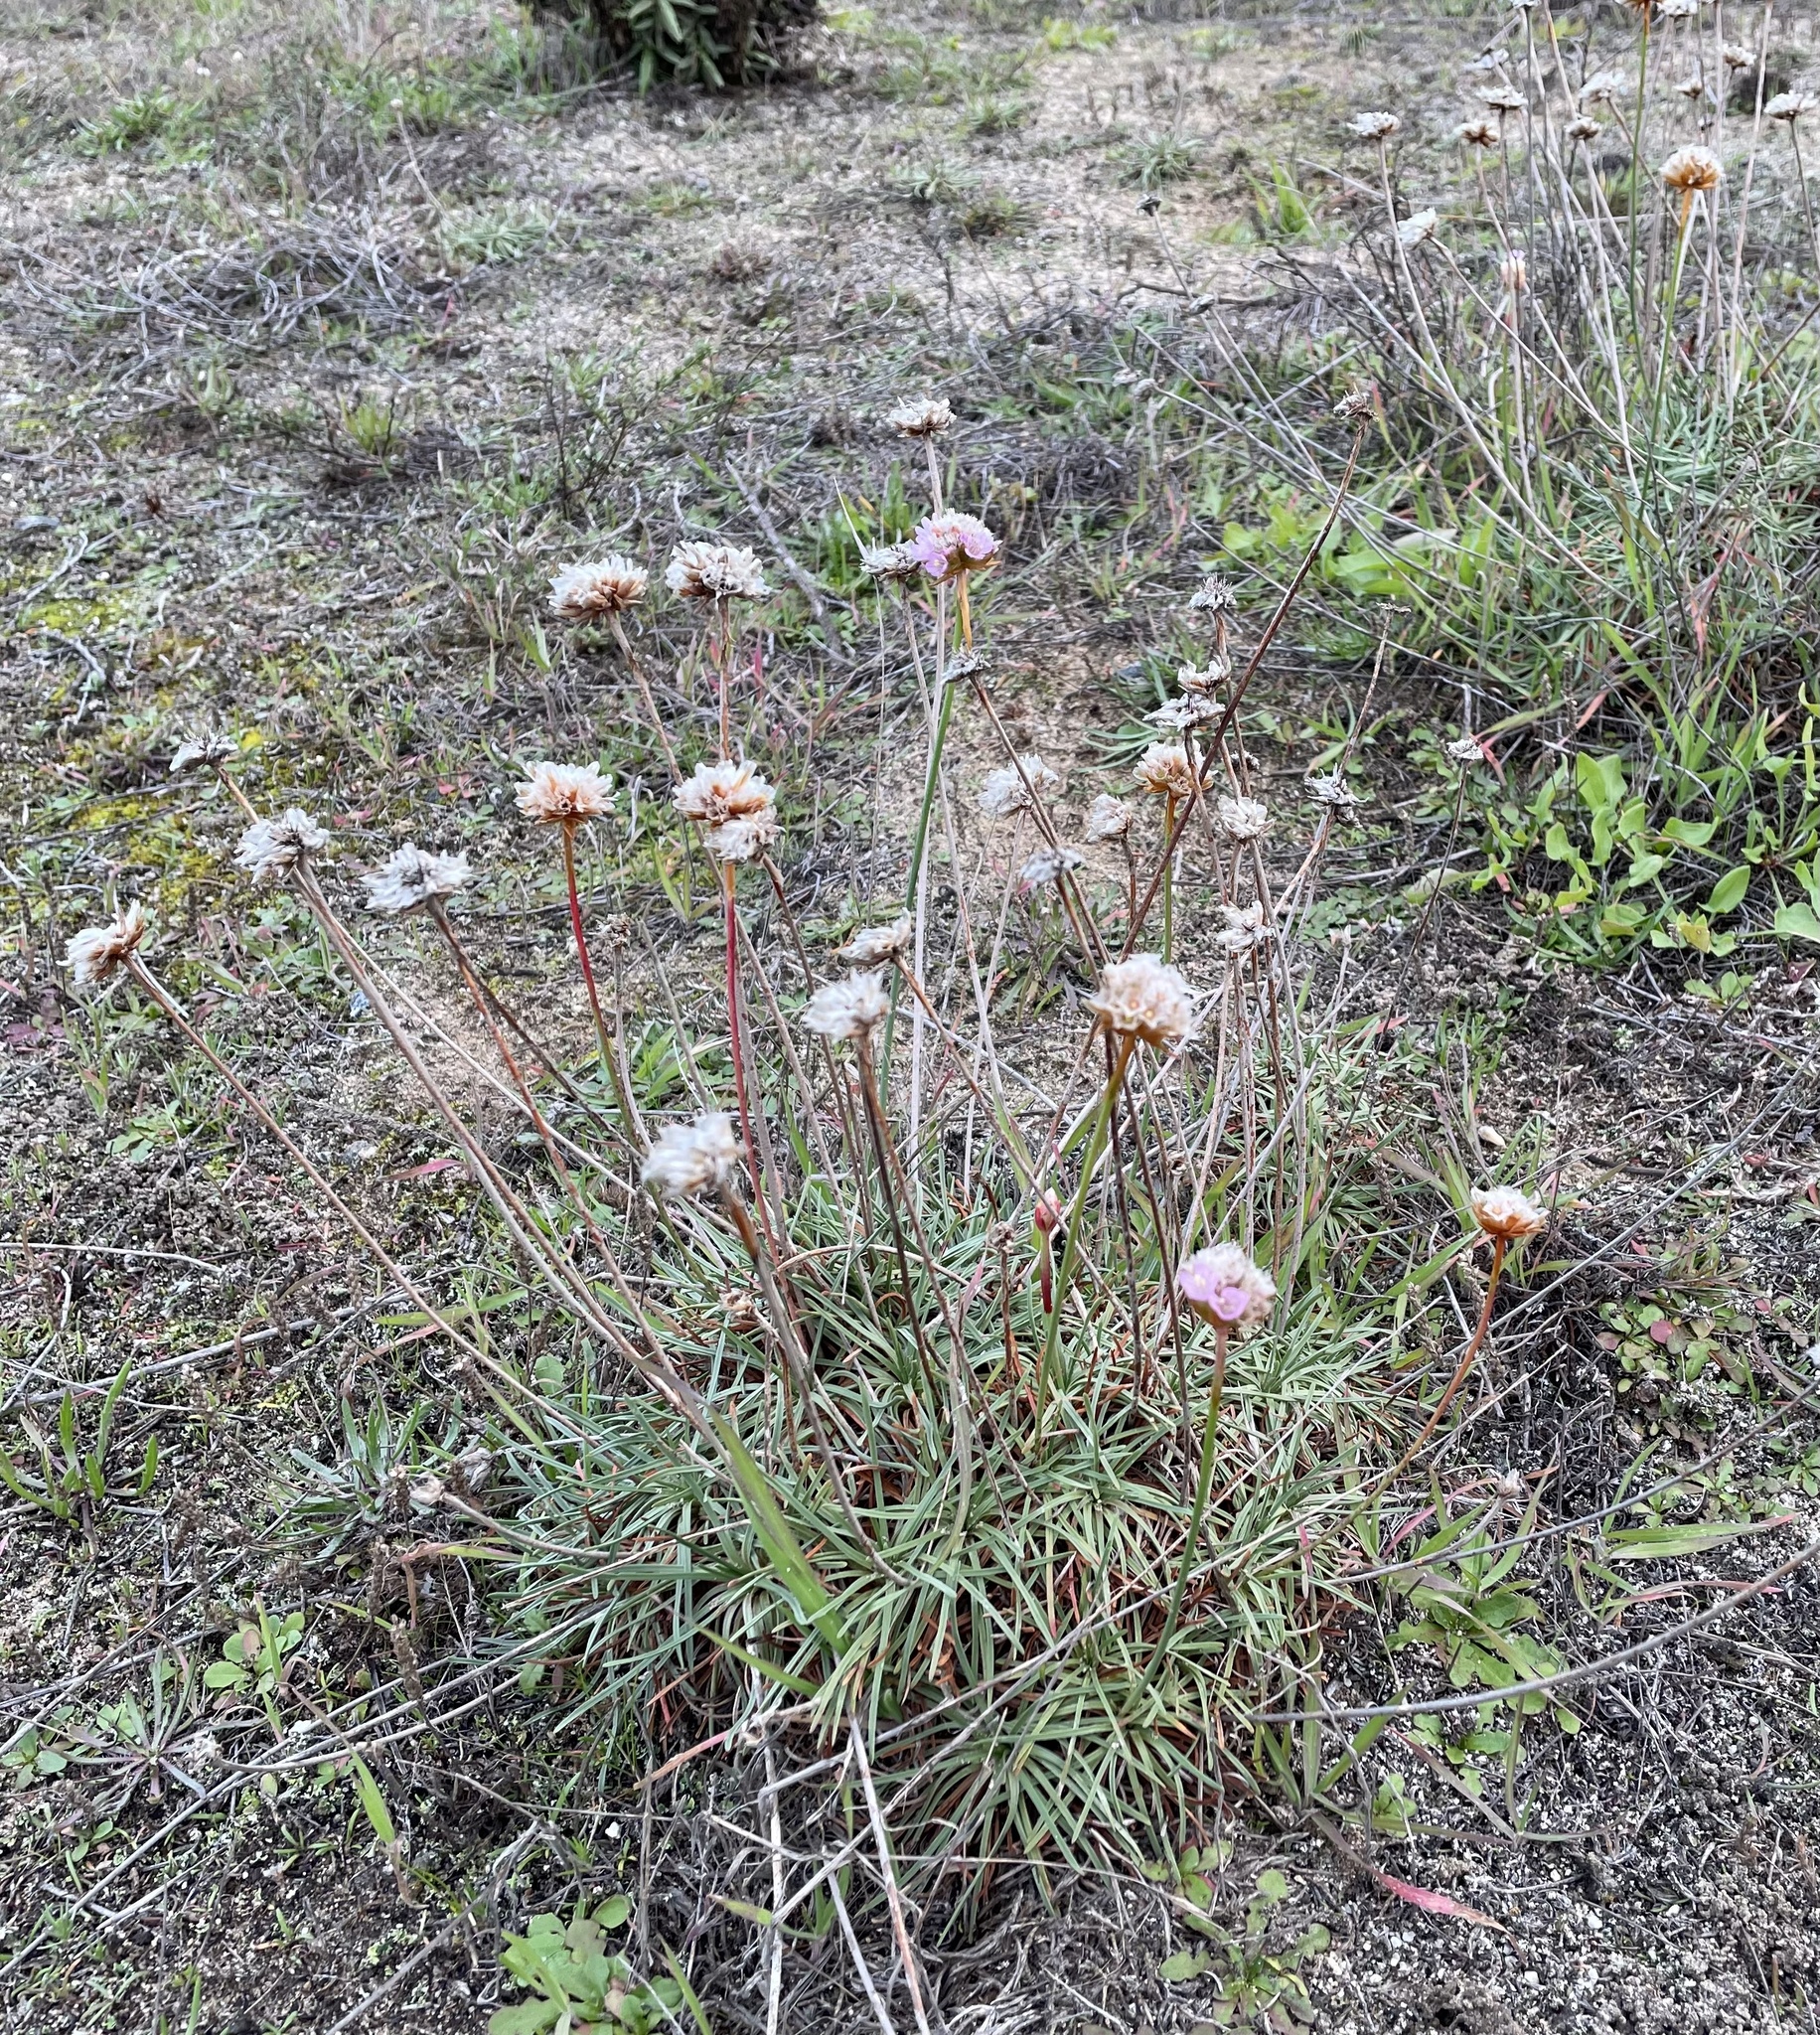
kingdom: Plantae
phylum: Tracheophyta
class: Magnoliopsida
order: Caryophyllales
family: Plumbaginaceae
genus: Armeria
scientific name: Armeria maritima
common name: Thrift
